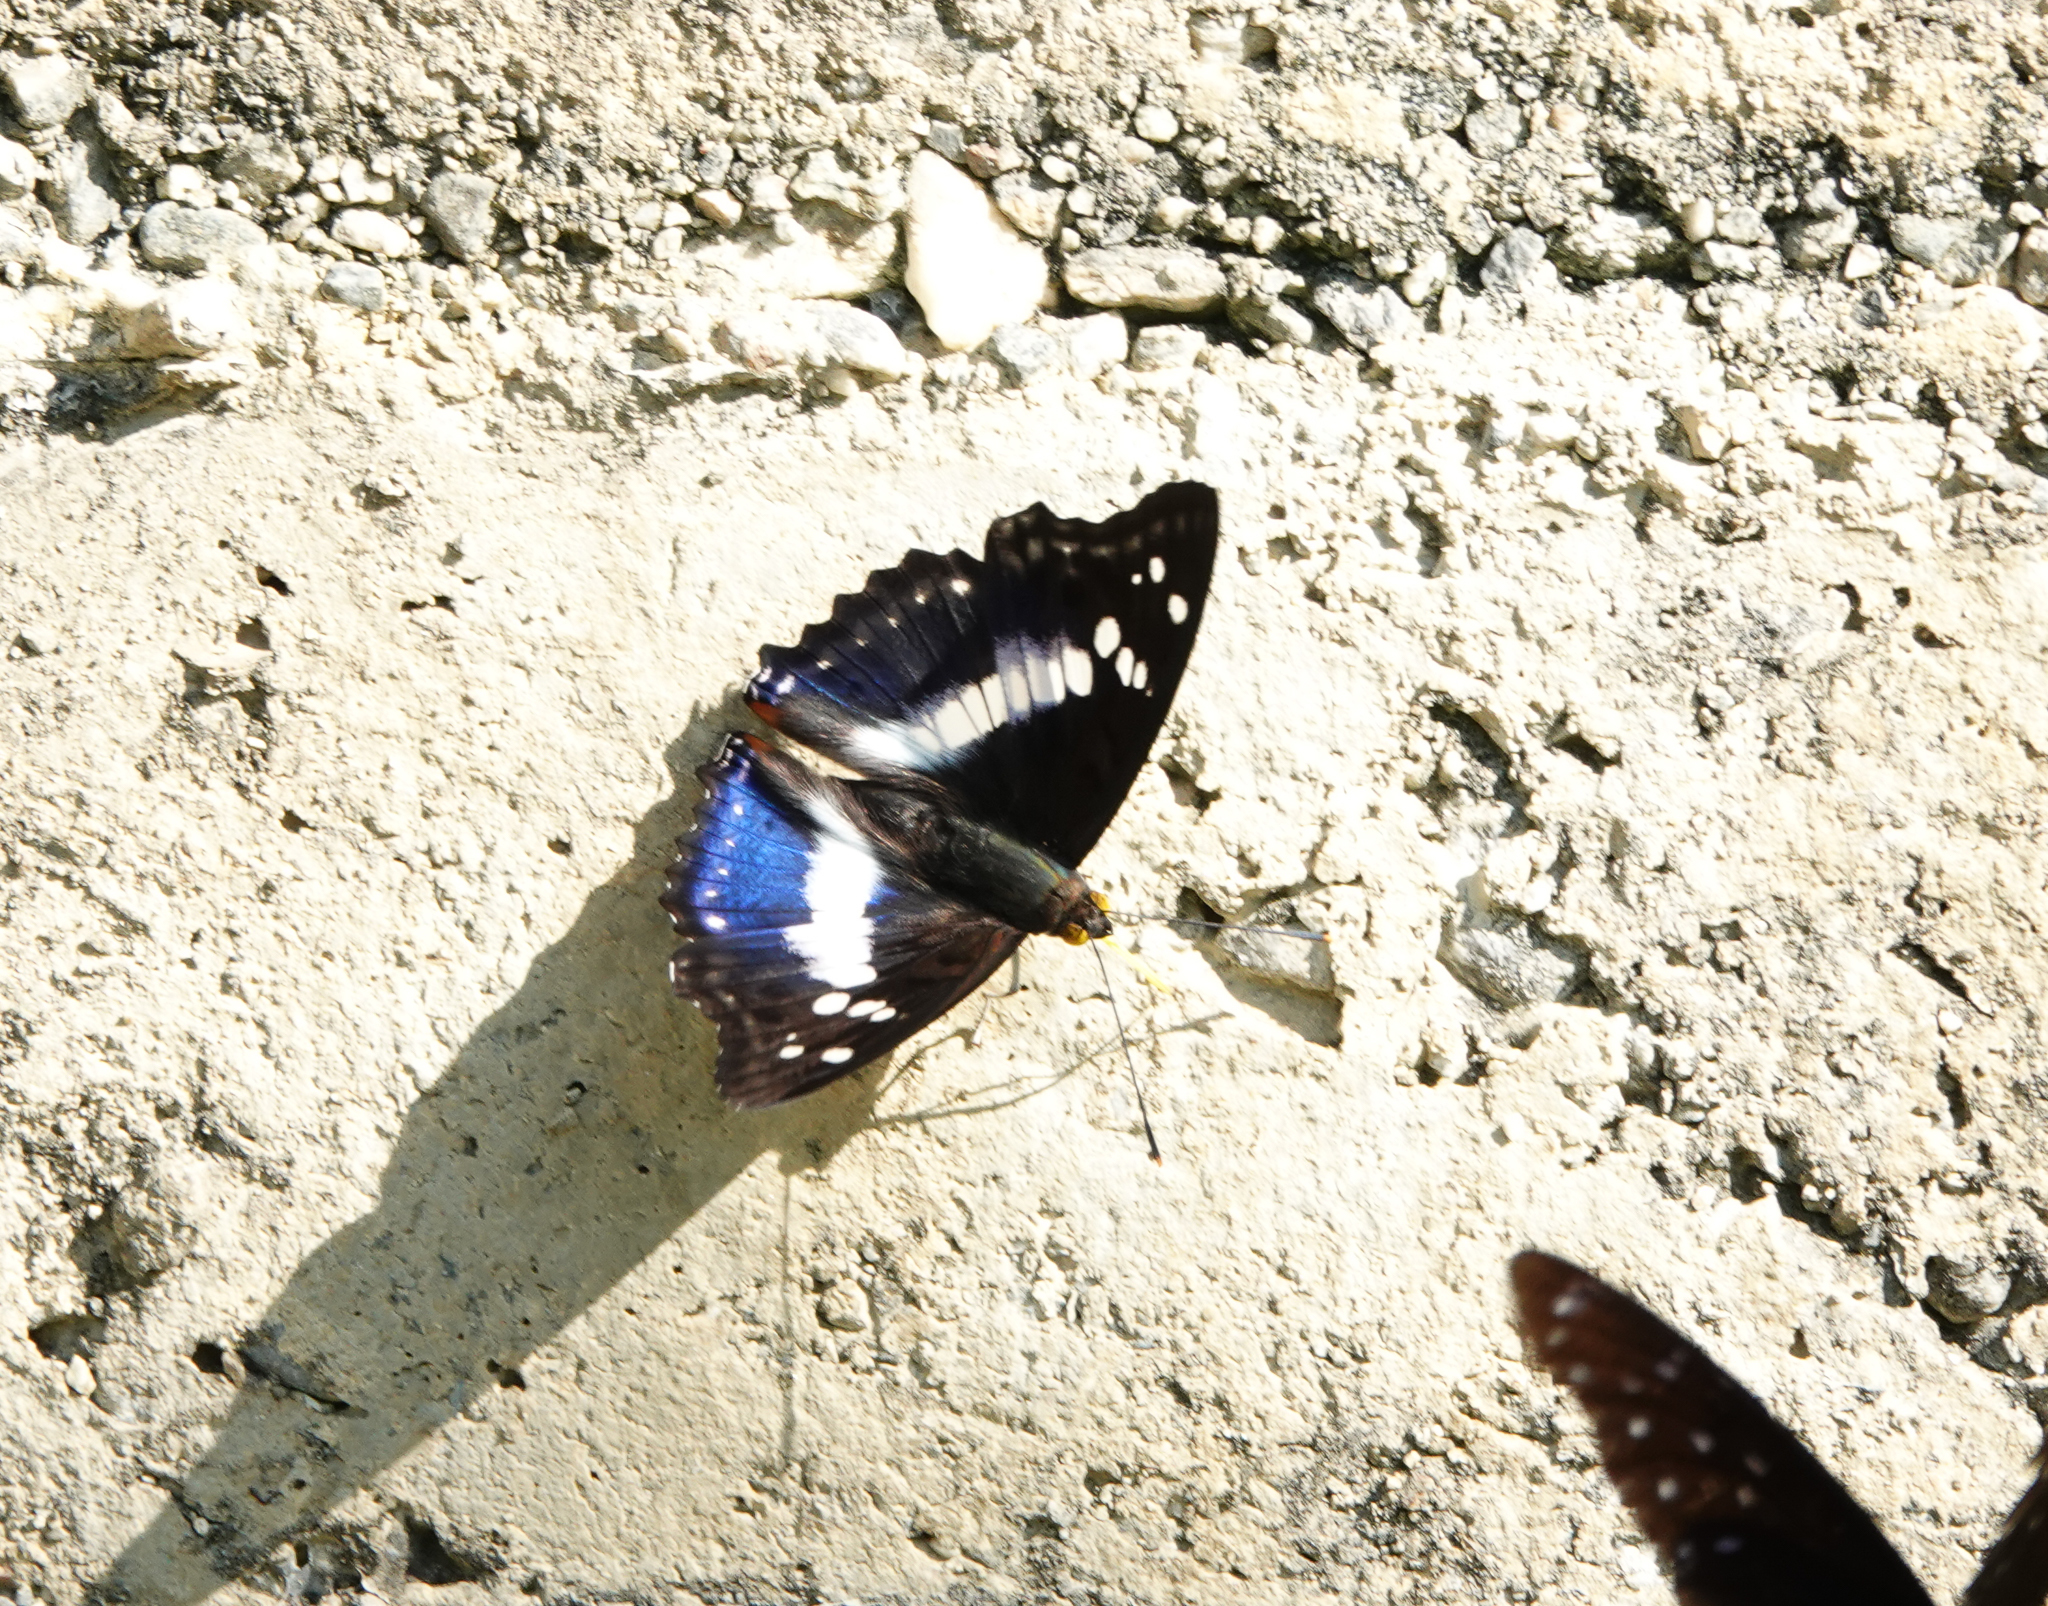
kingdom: Animalia
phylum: Arthropoda
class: Insecta
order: Lepidoptera
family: Nymphalidae
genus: Apatura
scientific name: Apatura Mimathyma ambica
